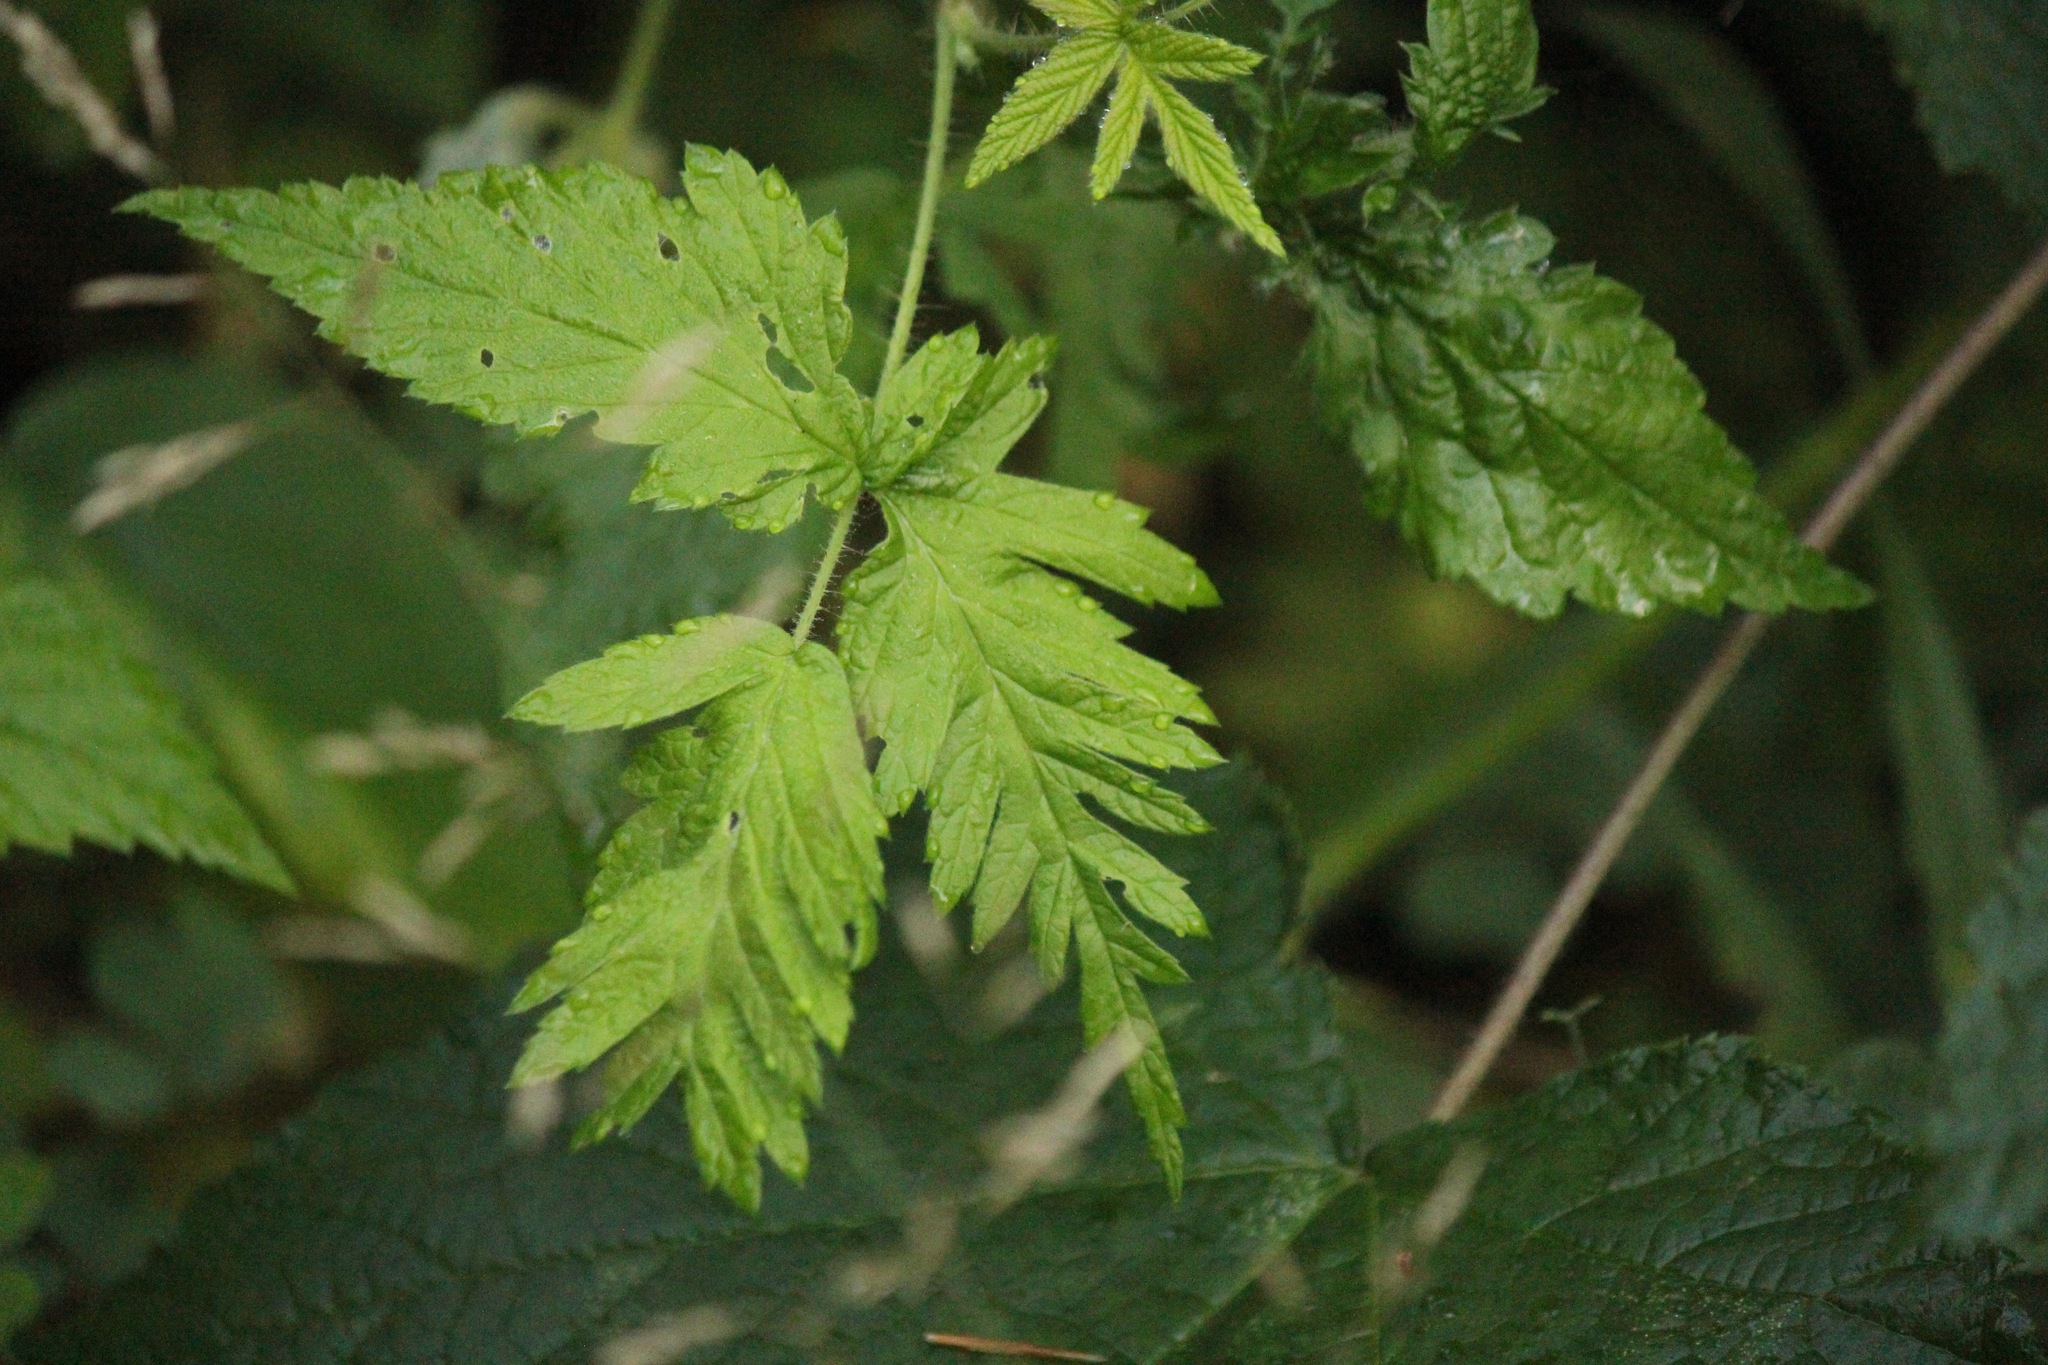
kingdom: Plantae
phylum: Tracheophyta
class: Magnoliopsida
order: Rosales
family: Rosaceae
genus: Rubus
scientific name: Rubus idaeus
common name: Raspberry
